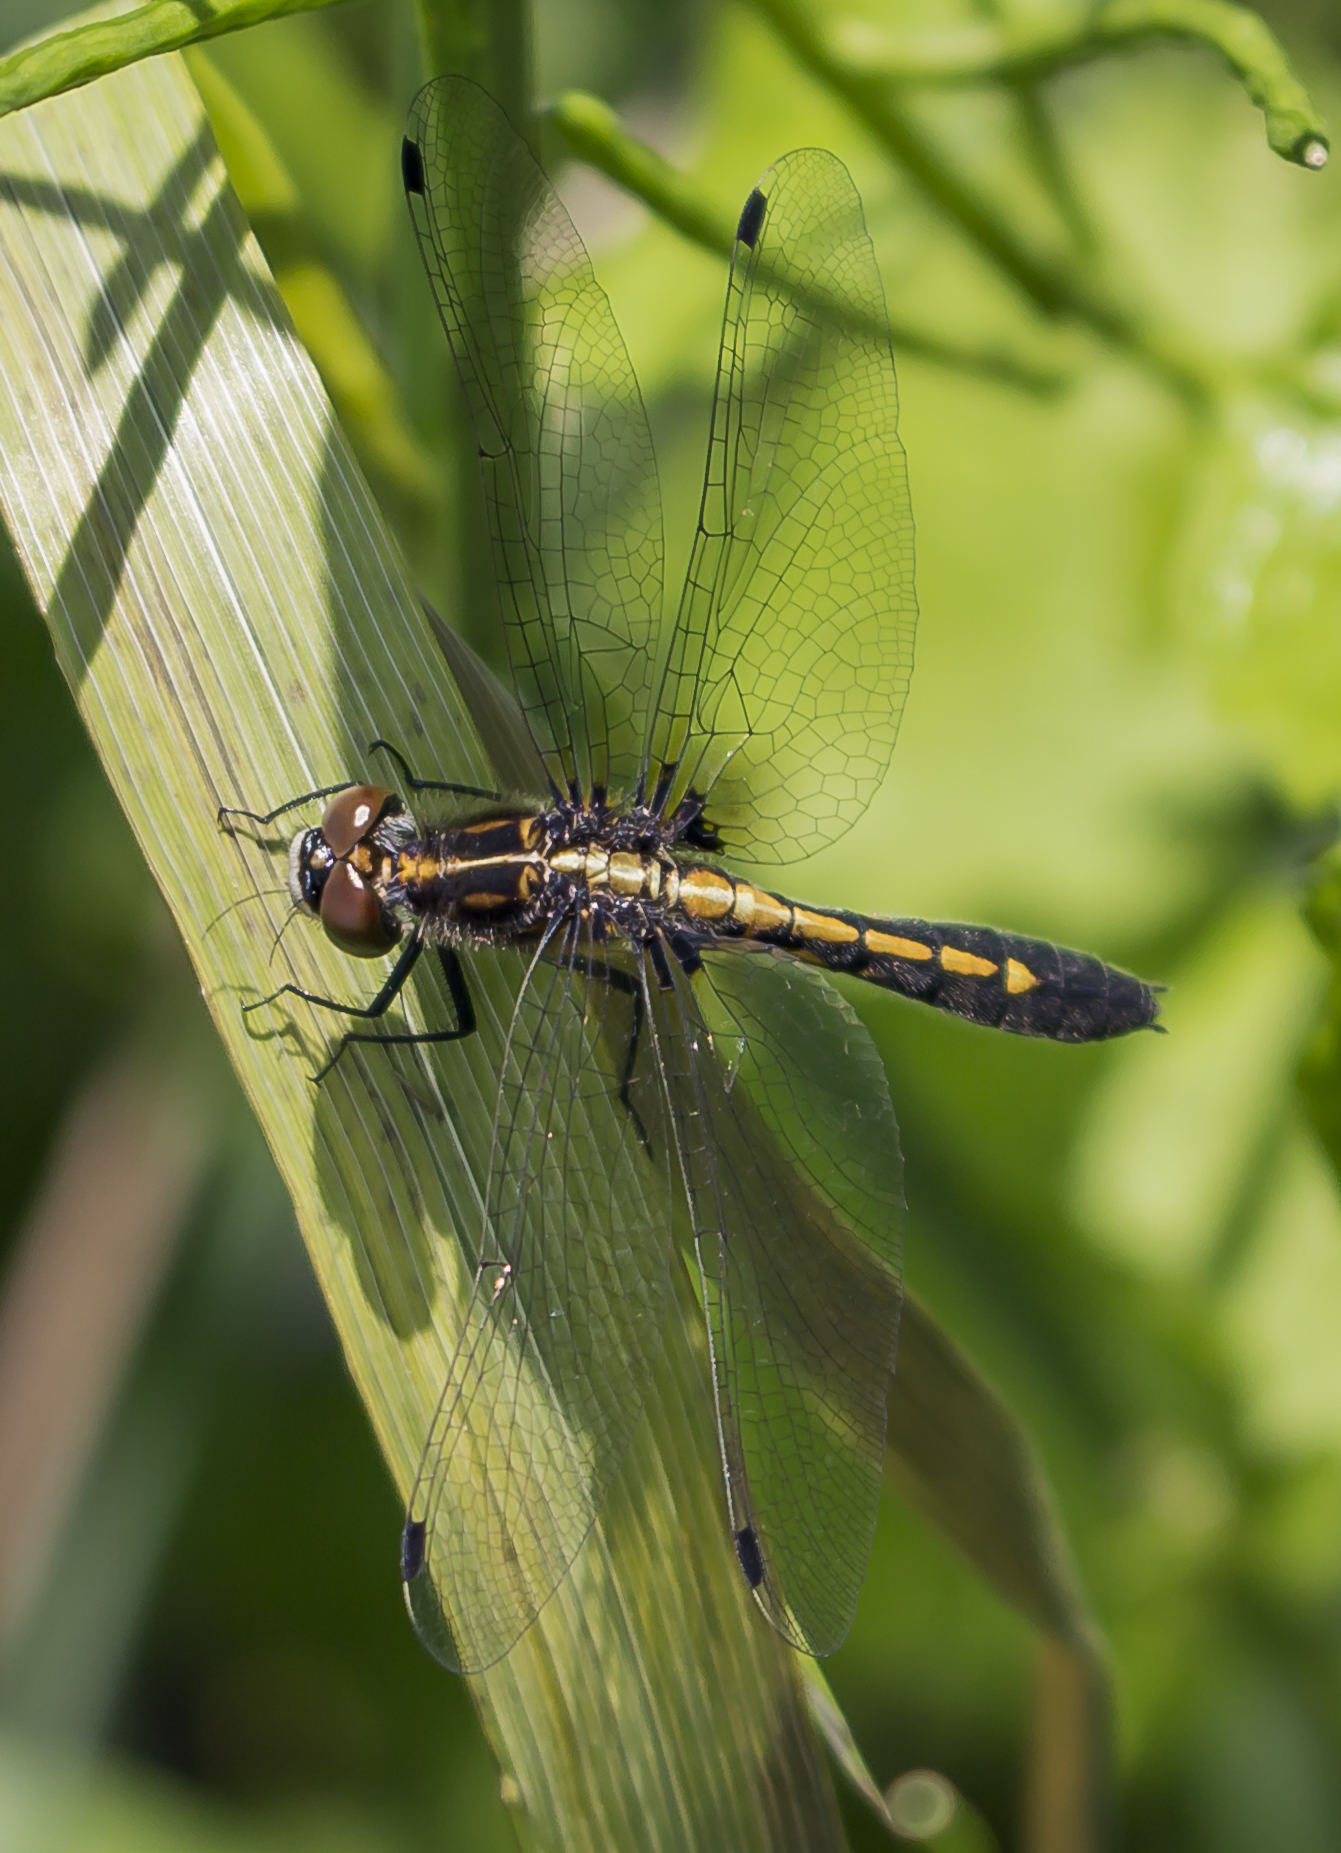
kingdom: Animalia
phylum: Arthropoda
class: Insecta
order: Odonata
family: Libellulidae
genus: Leucorrhinia
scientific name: Leucorrhinia intacta
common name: Dot-tailed whiteface
